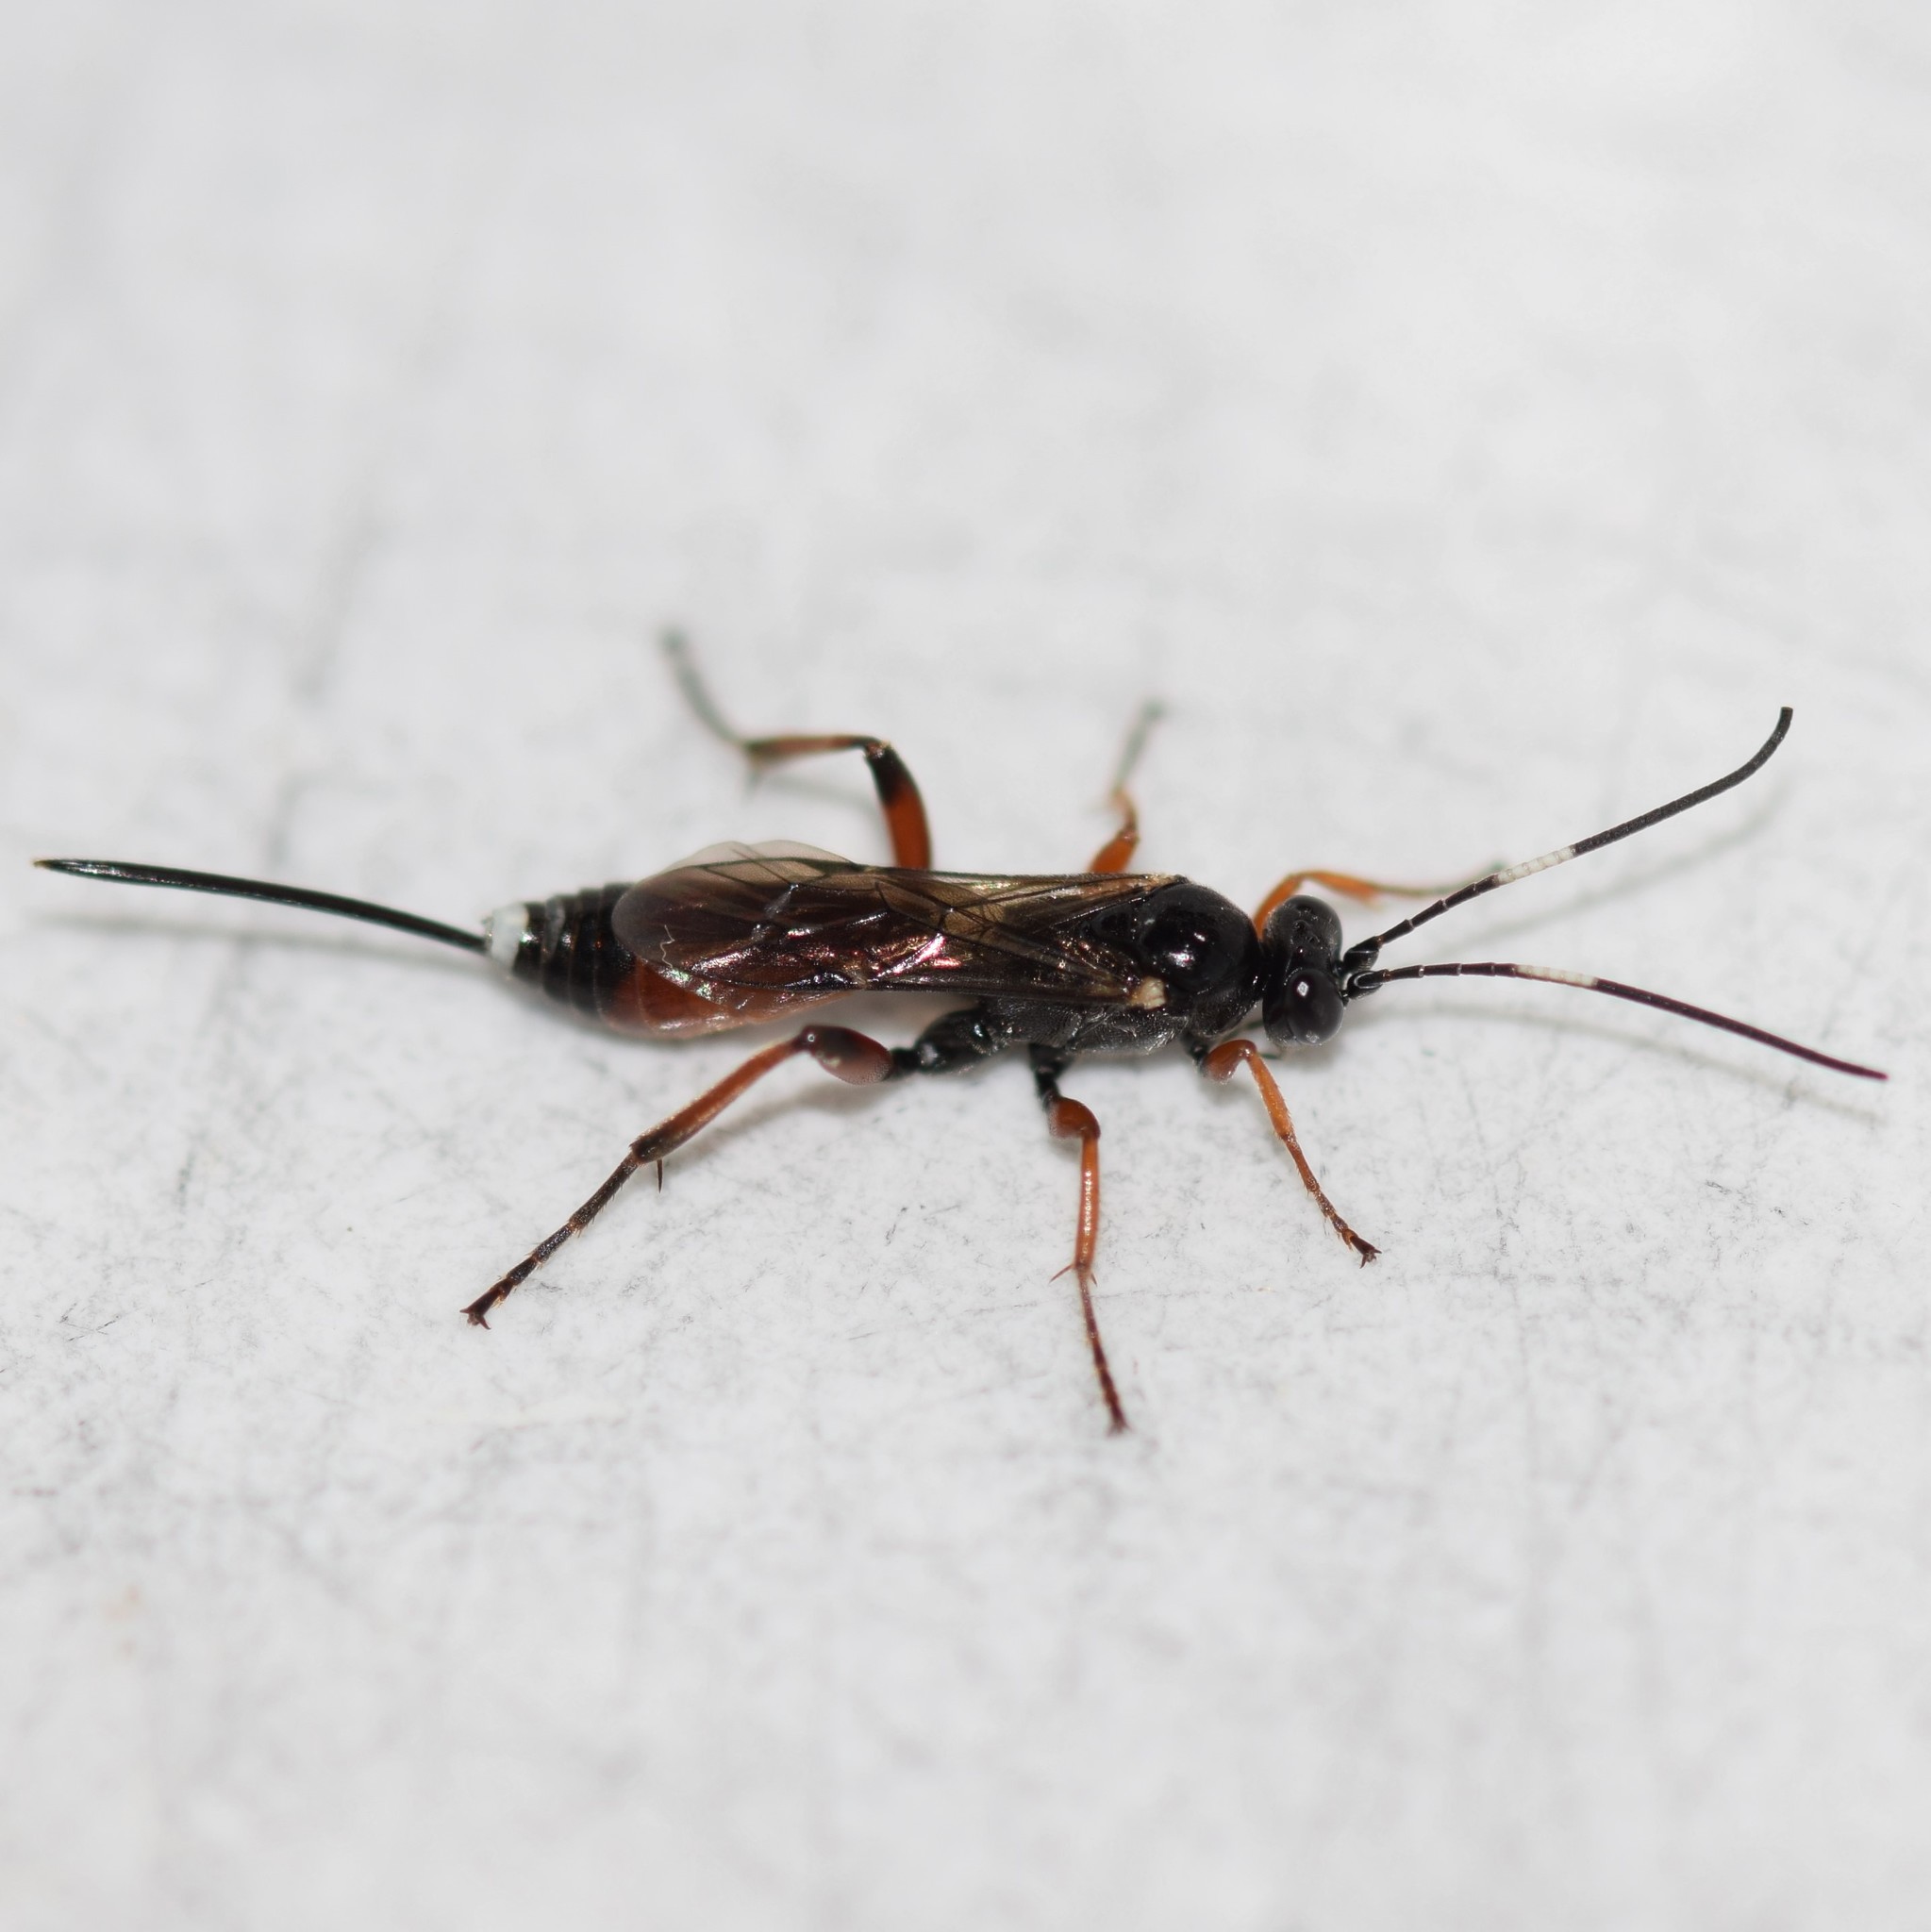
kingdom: Animalia
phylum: Arthropoda
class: Insecta
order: Hymenoptera
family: Ichneumonidae
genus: Aritranis
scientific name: Aritranis director
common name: Ichneumonid wasp
